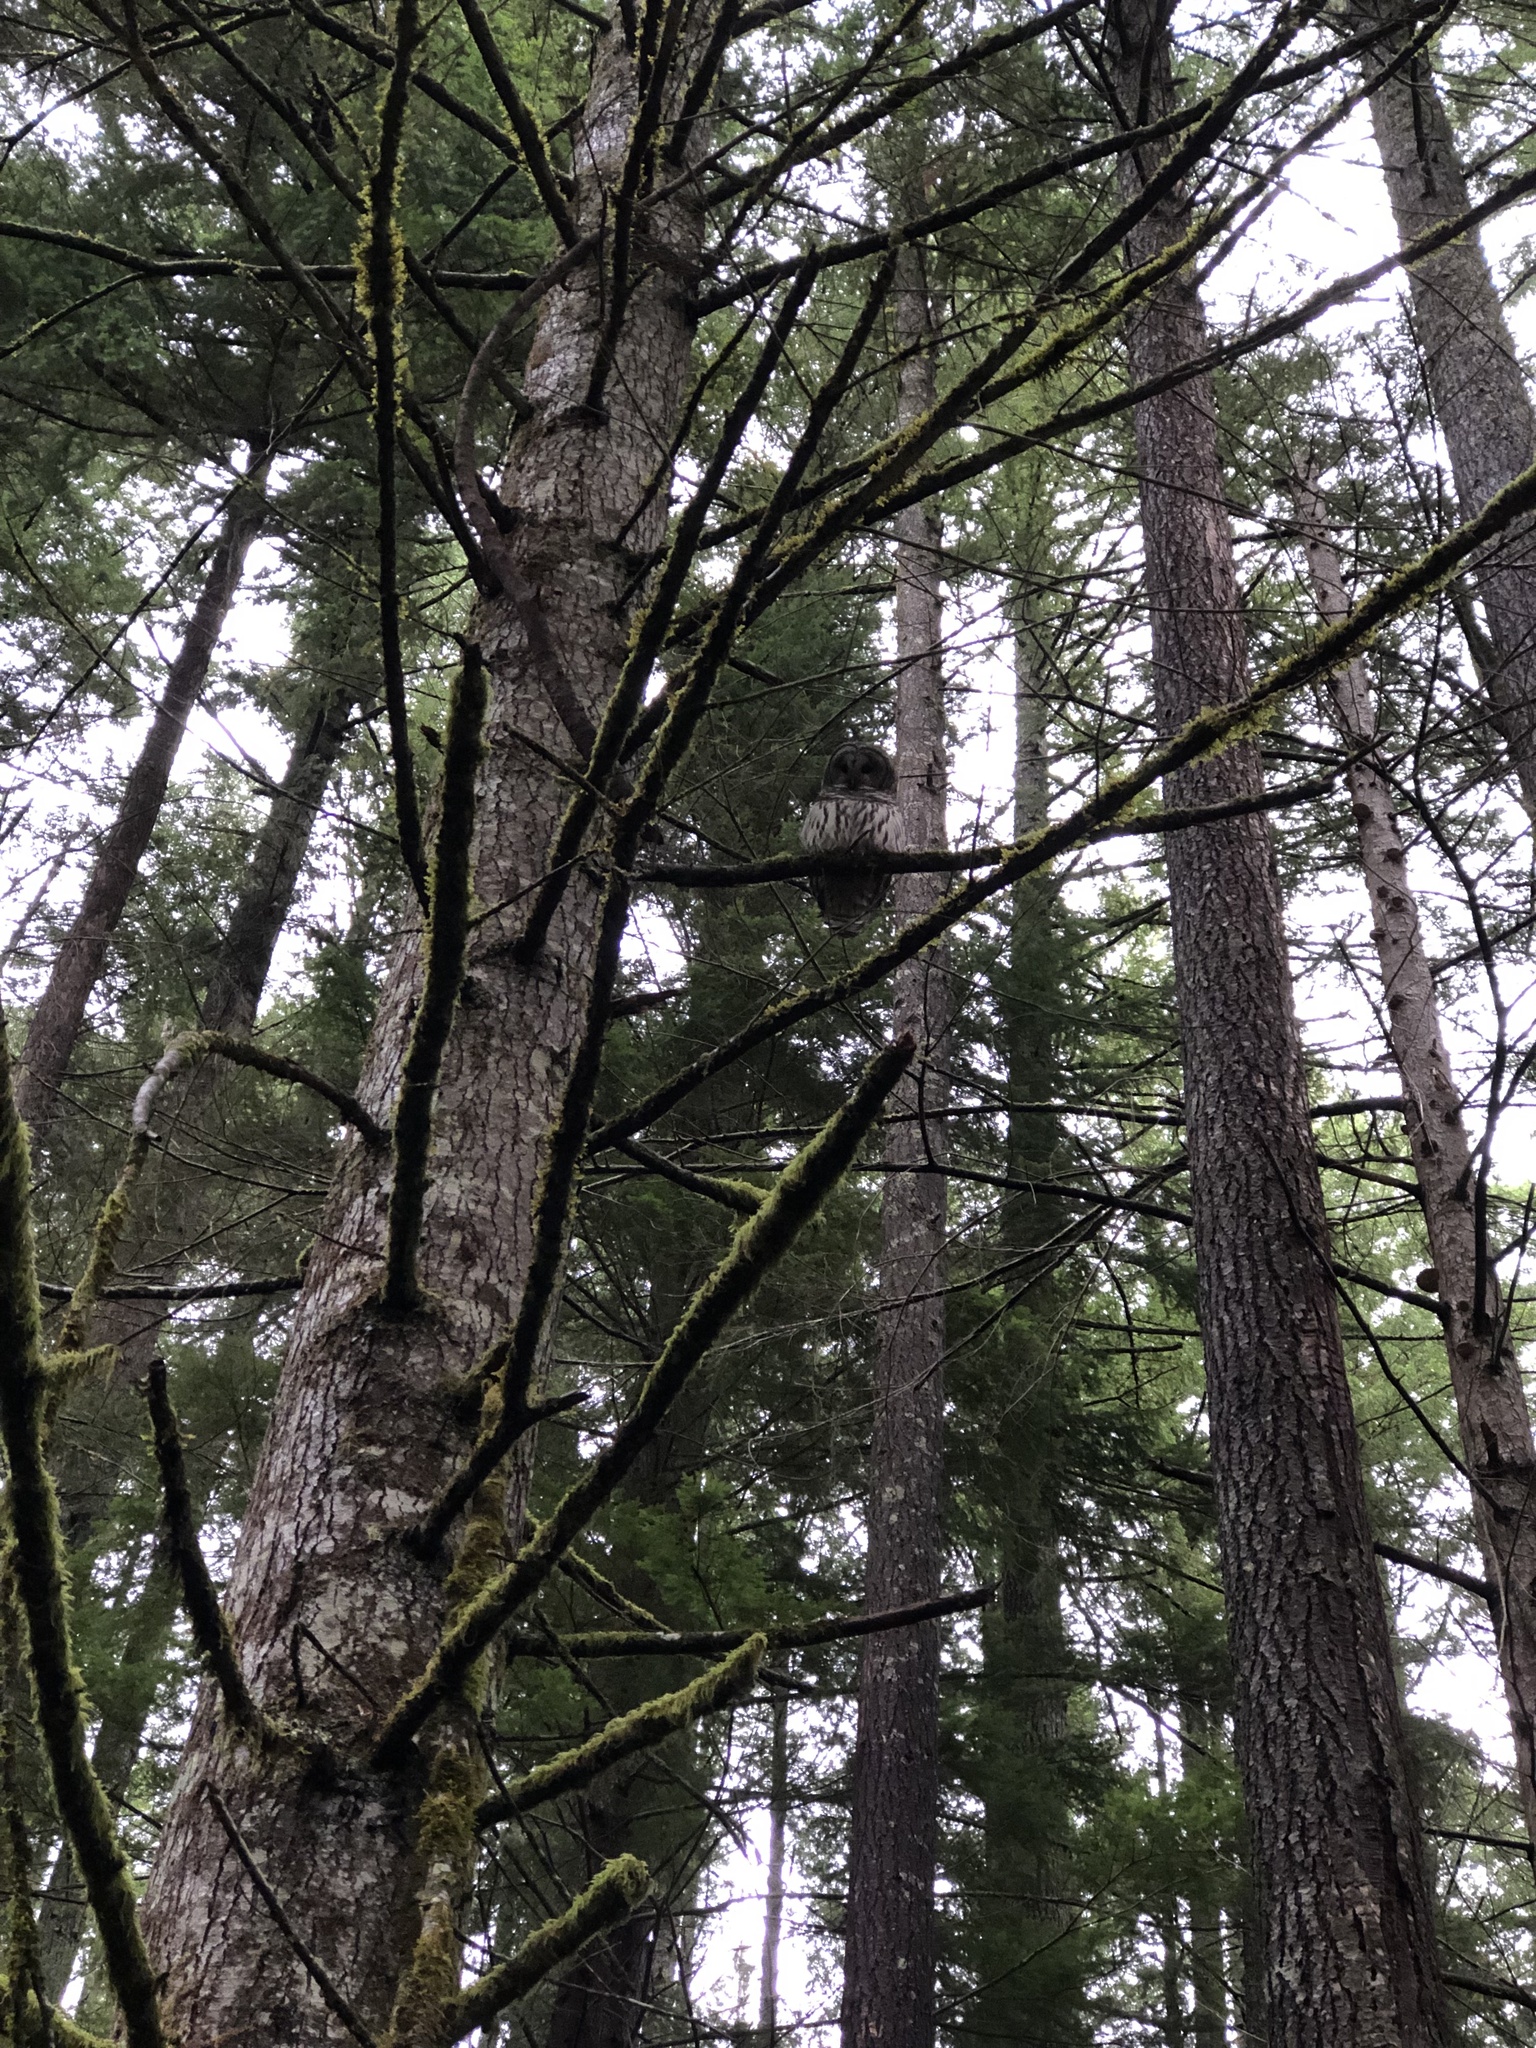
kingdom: Animalia
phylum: Chordata
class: Aves
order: Strigiformes
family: Strigidae
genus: Strix
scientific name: Strix varia
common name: Barred owl
